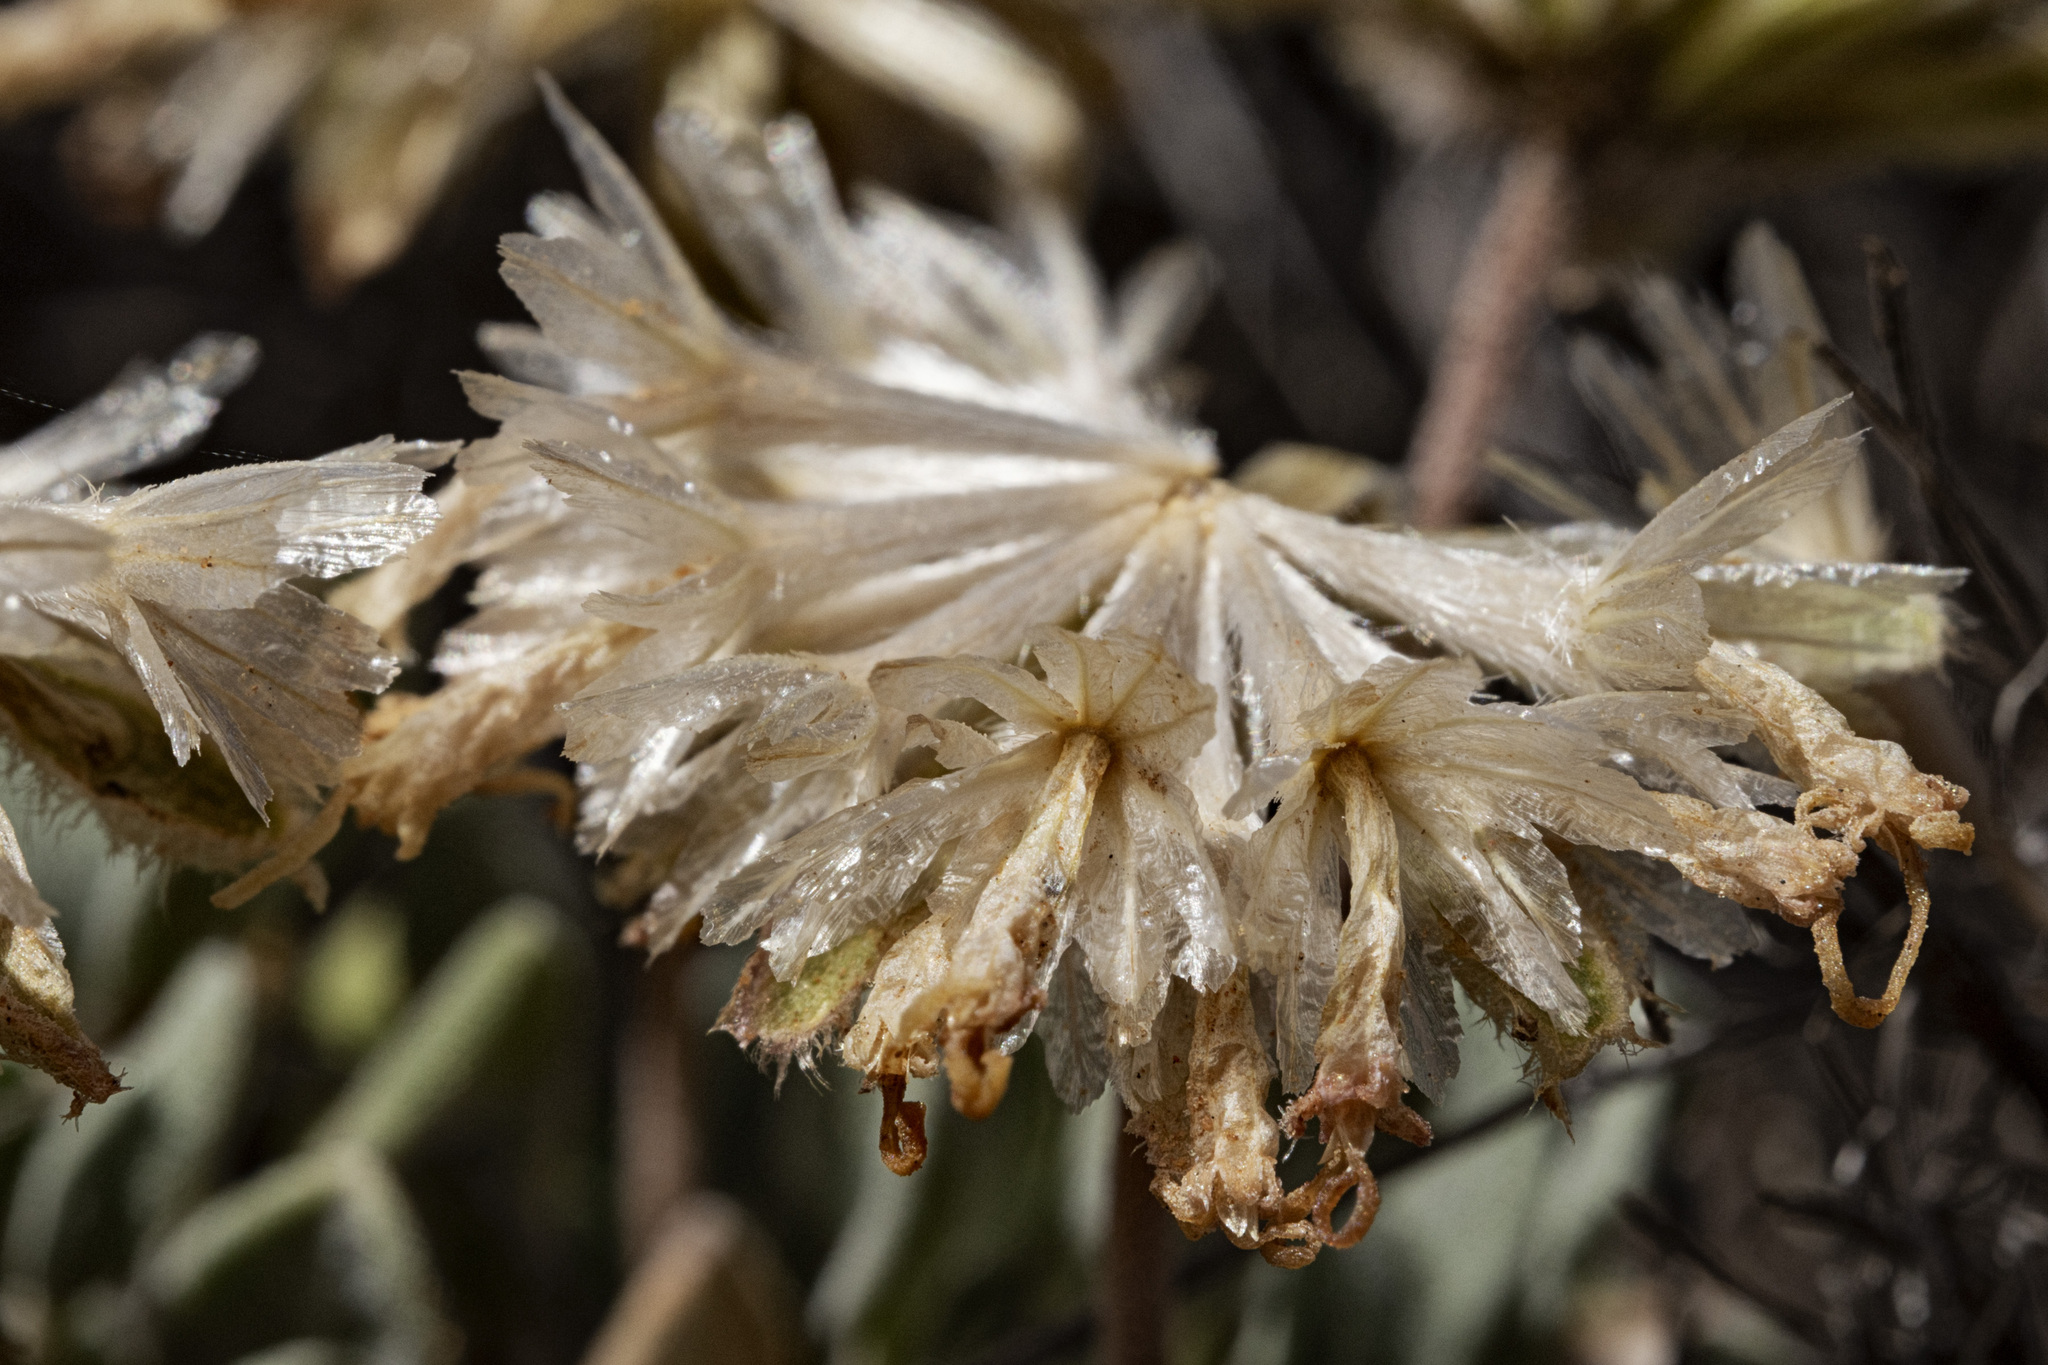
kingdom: Plantae
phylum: Tracheophyta
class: Magnoliopsida
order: Asterales
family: Asteraceae
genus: Chamaechaenactis
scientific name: Chamaechaenactis scaposa
